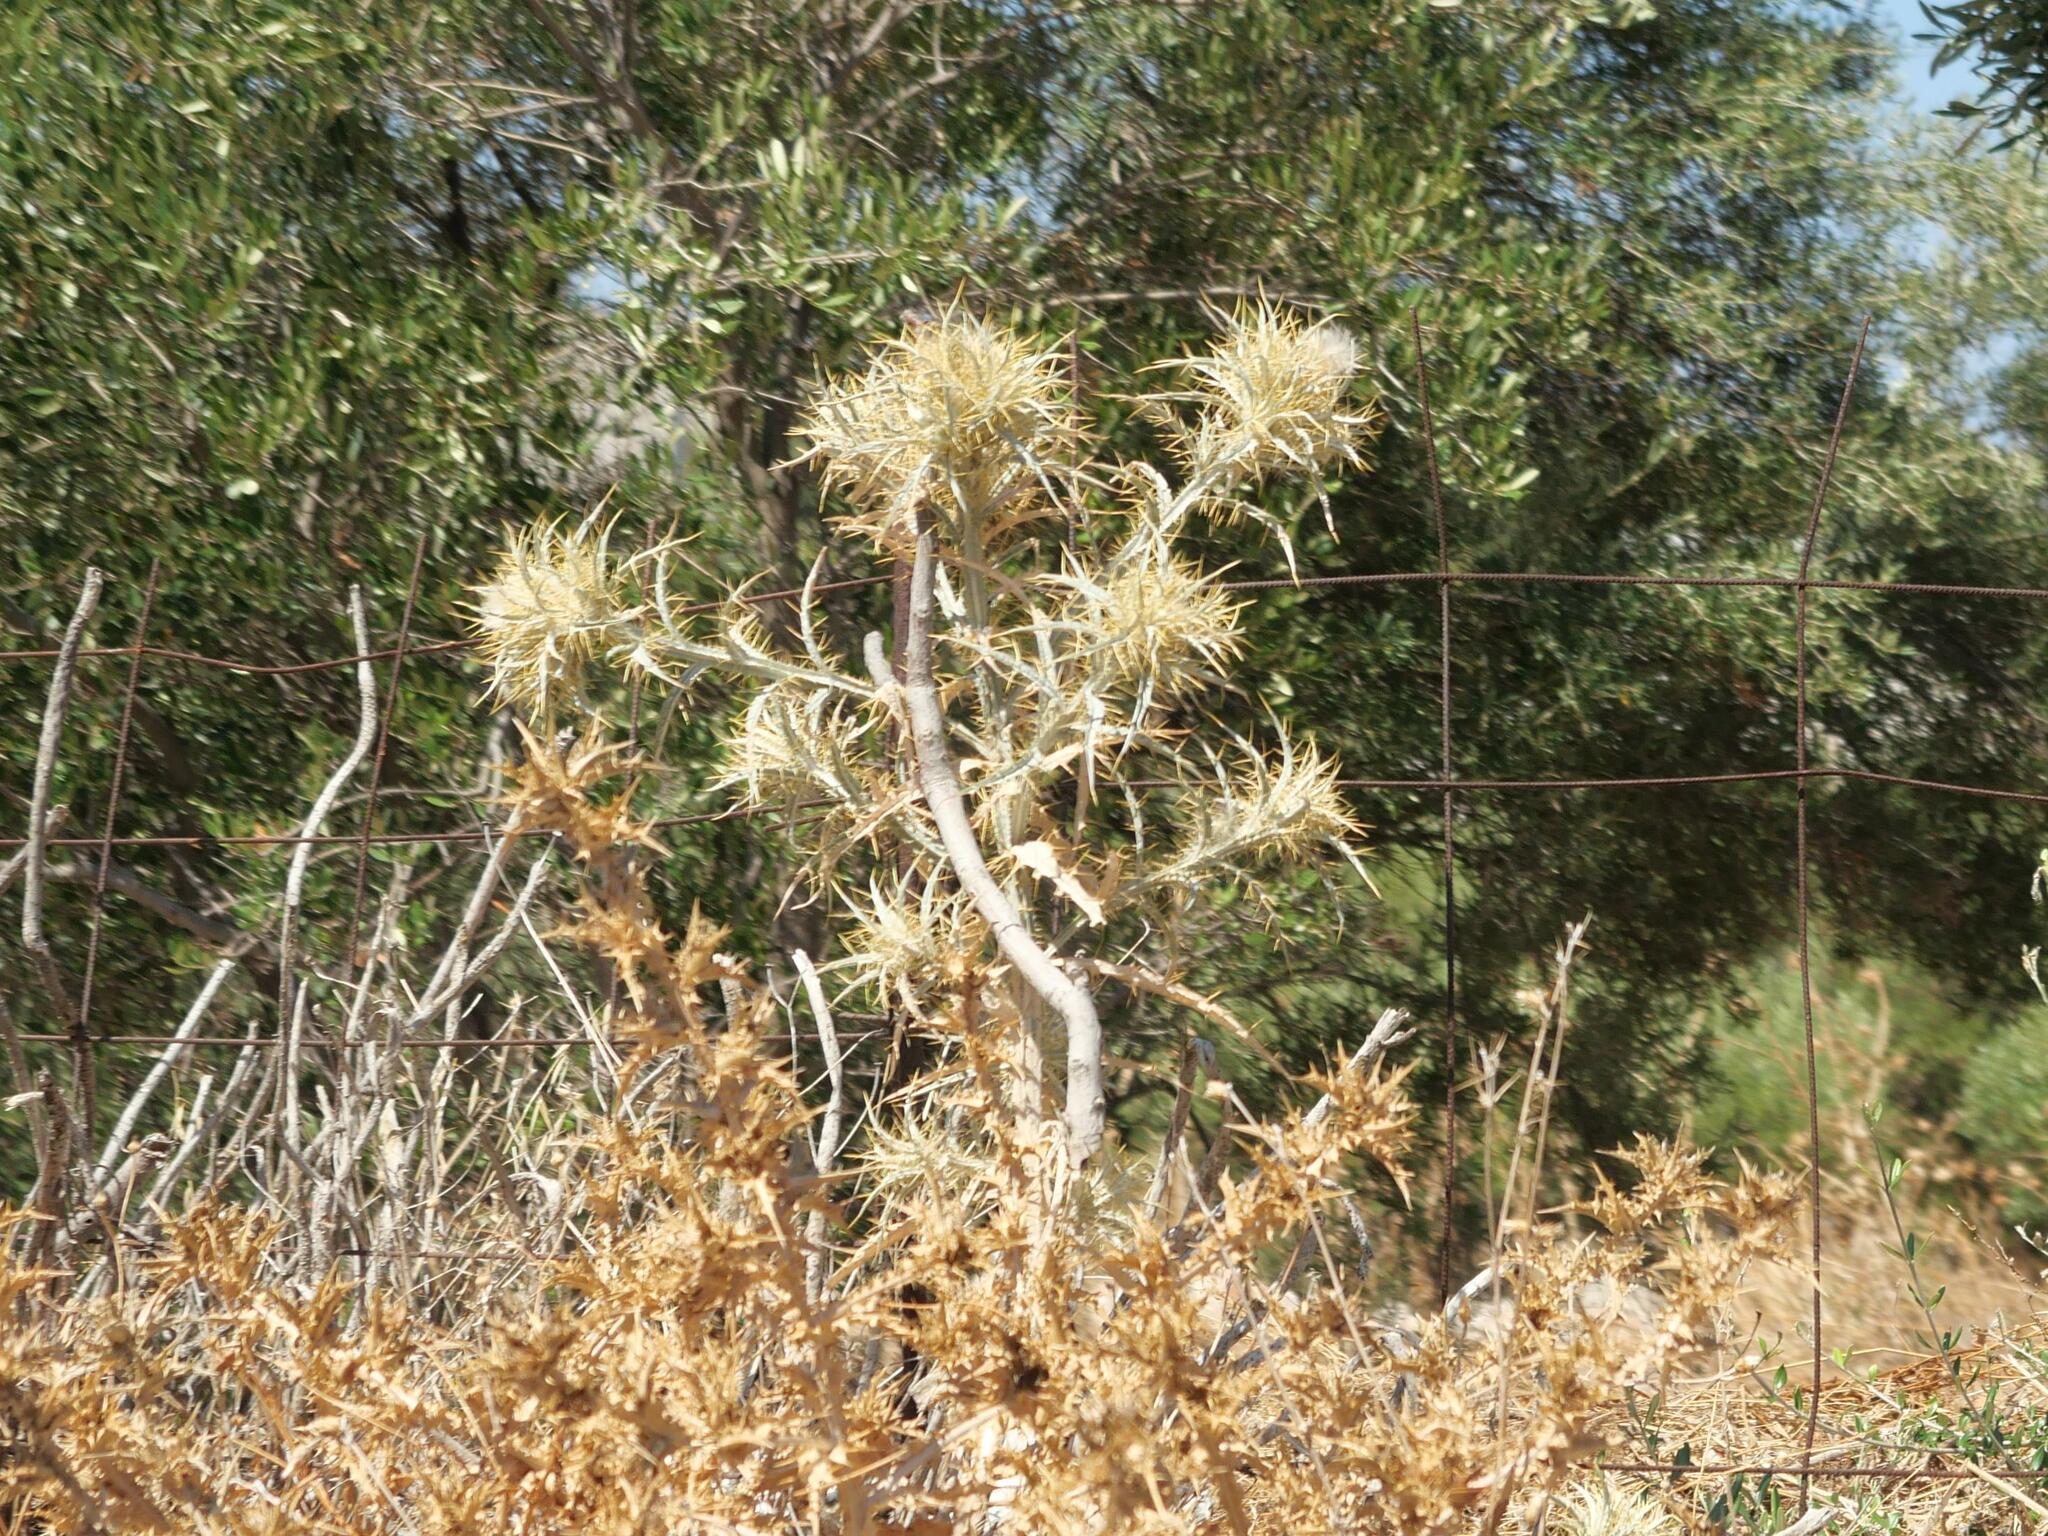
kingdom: Plantae
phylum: Tracheophyta
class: Magnoliopsida
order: Asterales
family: Asteraceae
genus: Picnomon
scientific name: Picnomon acarna
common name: Soldier thistle
